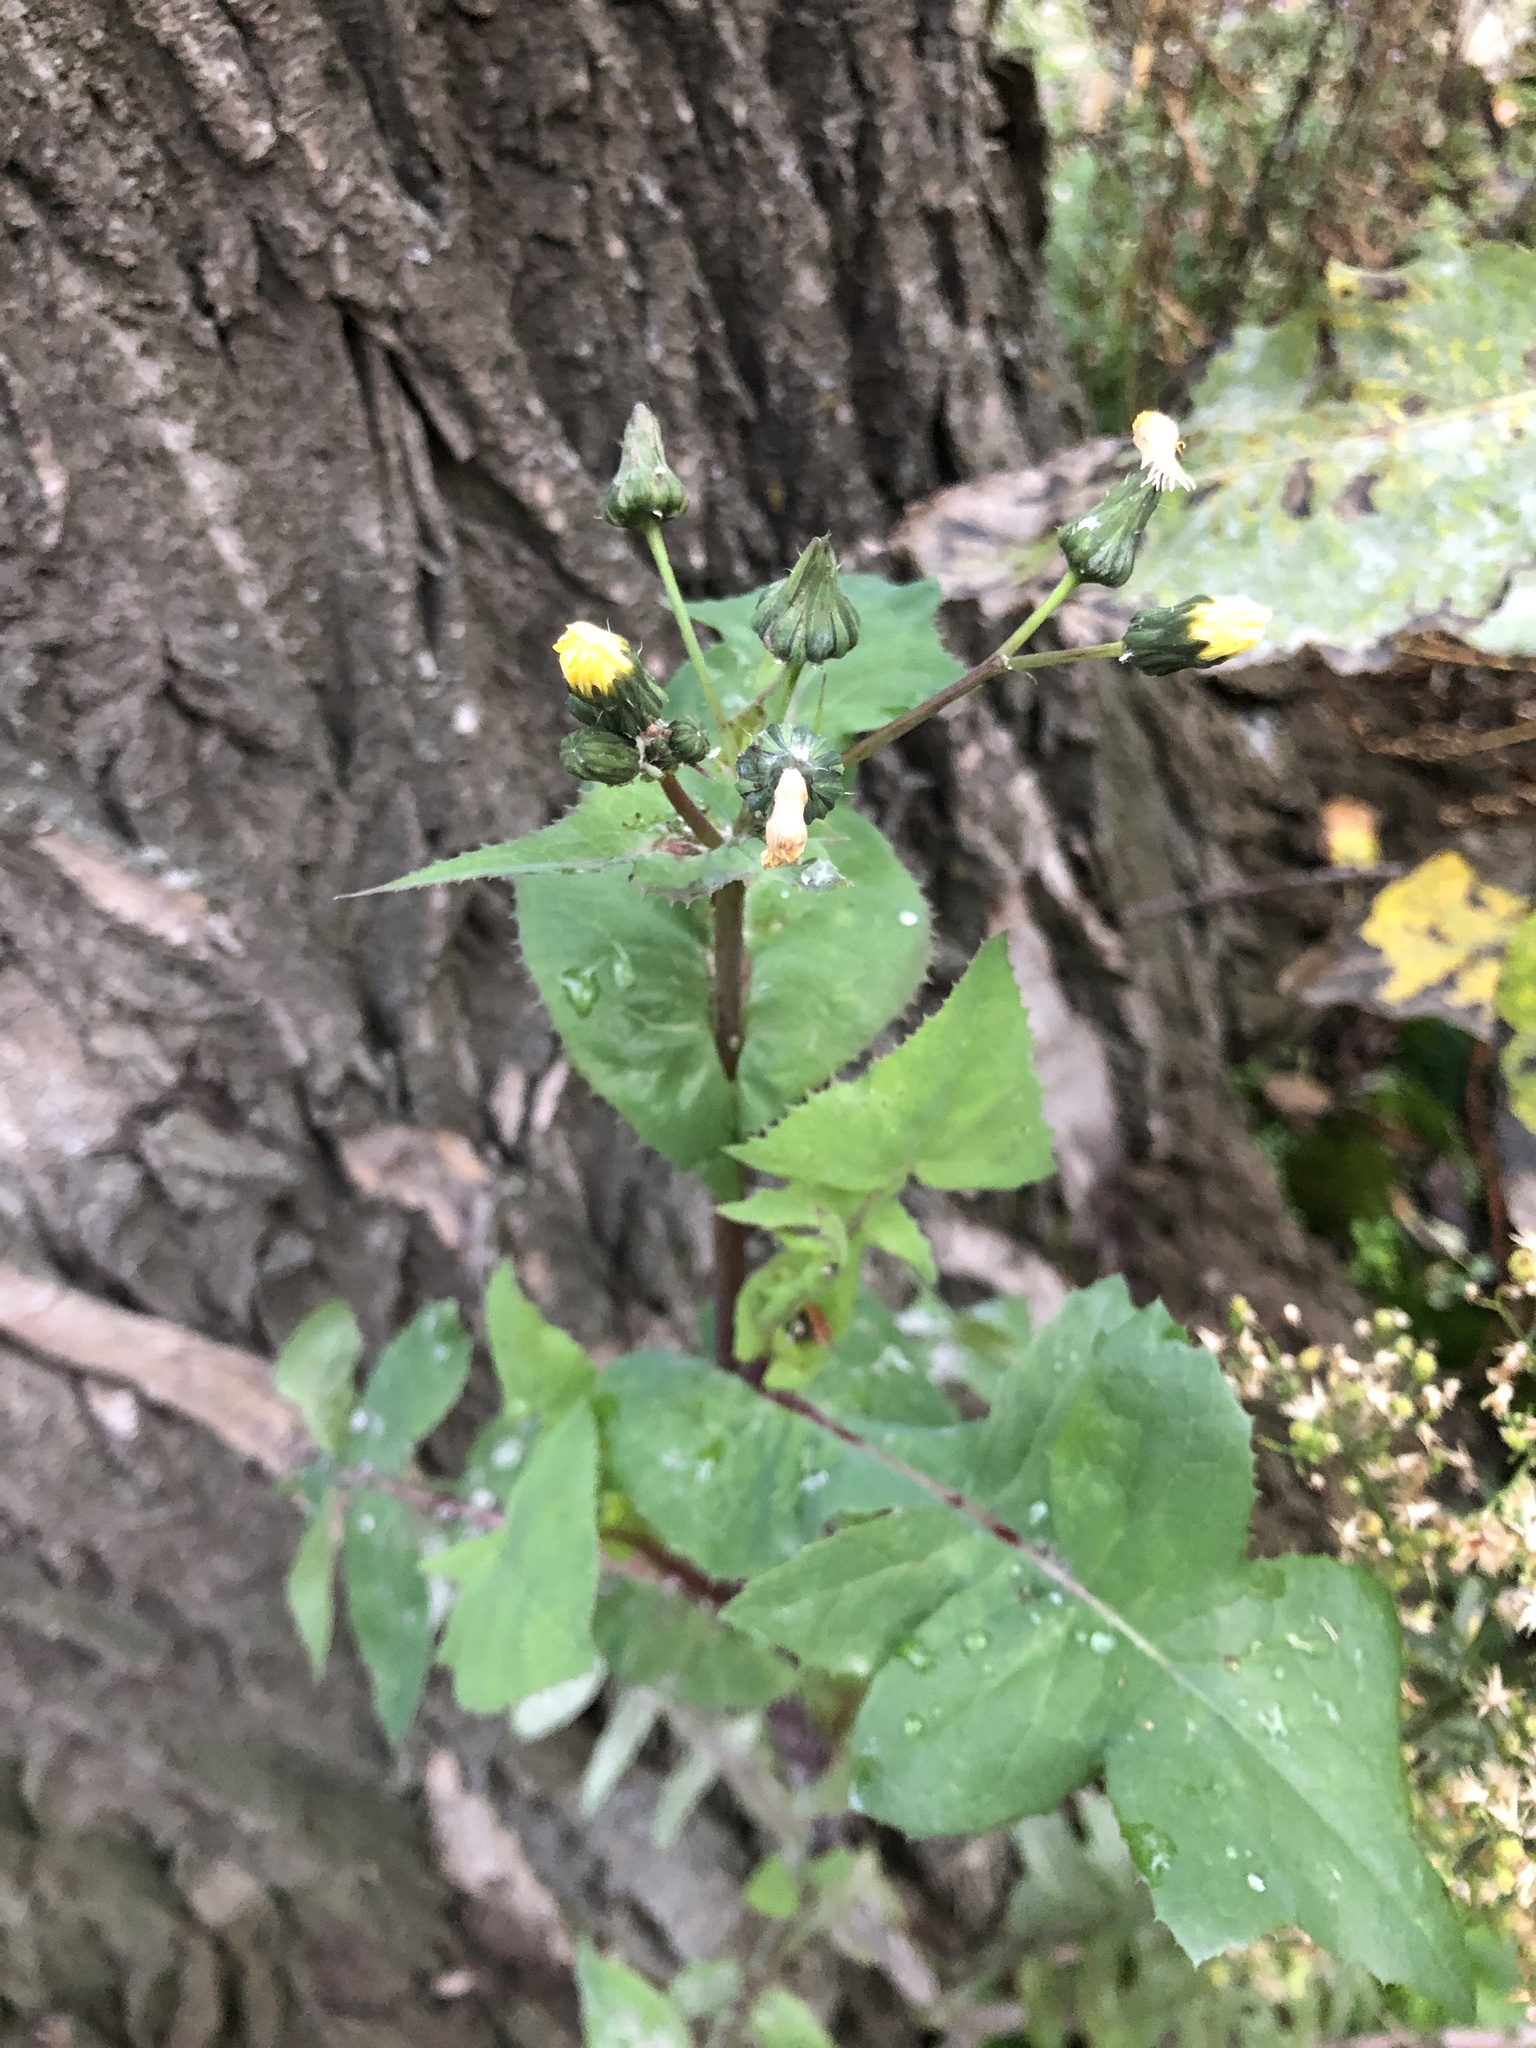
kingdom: Plantae
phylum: Tracheophyta
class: Magnoliopsida
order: Asterales
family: Asteraceae
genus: Sonchus
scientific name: Sonchus oleraceus
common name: Common sowthistle
